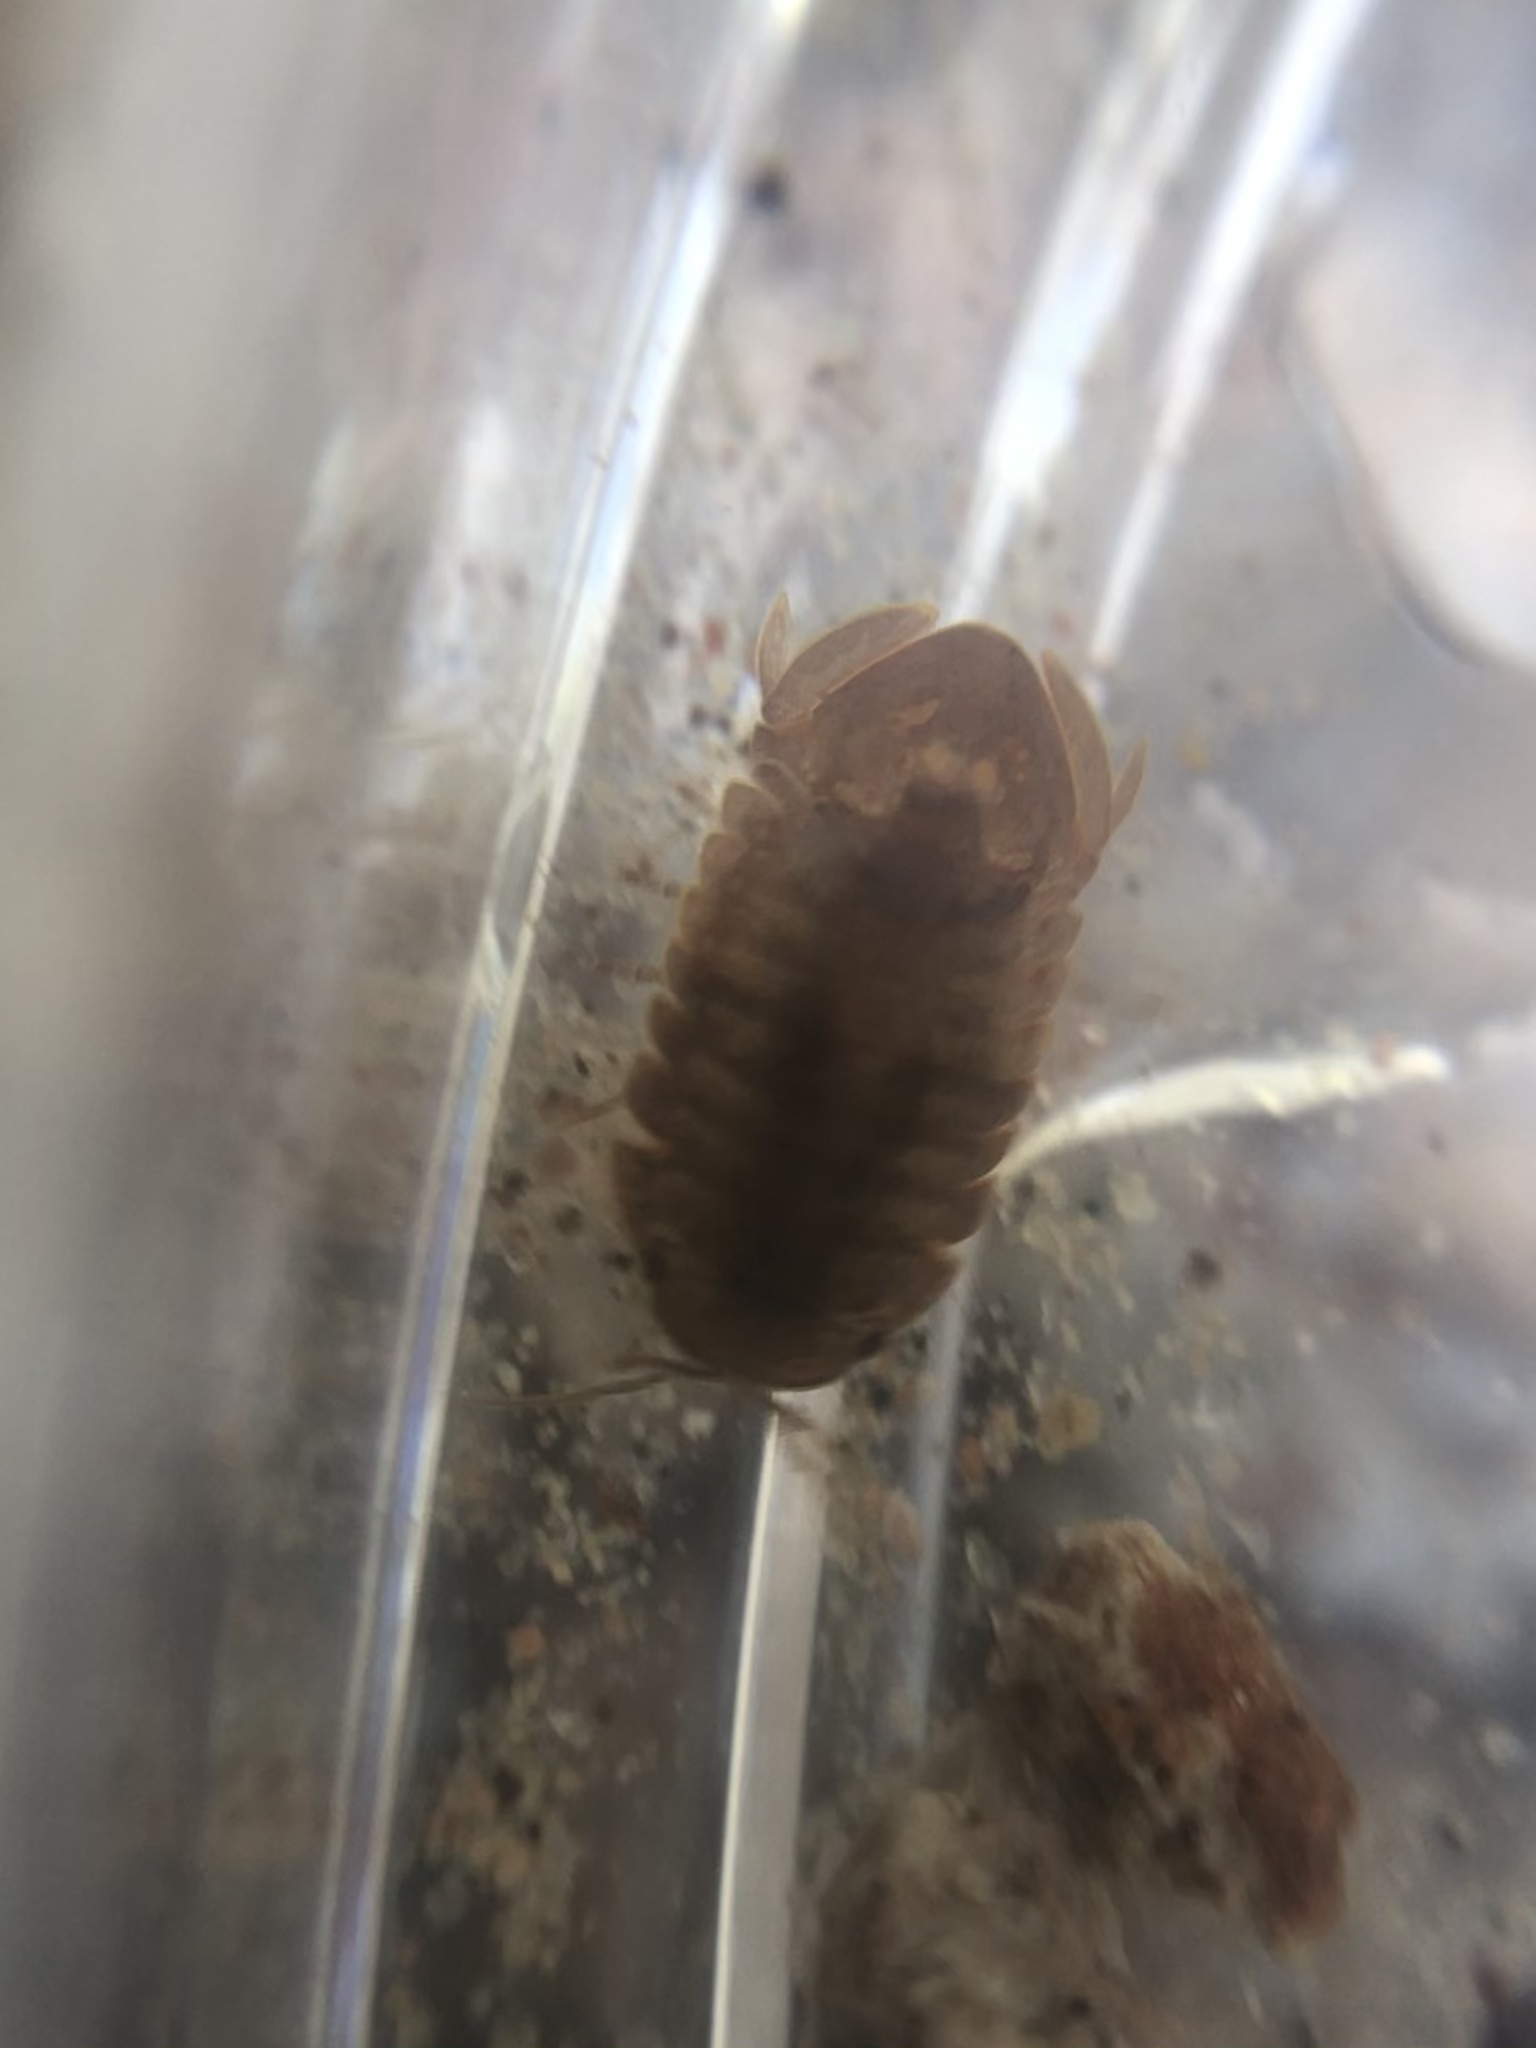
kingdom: Animalia
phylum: Arthropoda
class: Malacostraca
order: Isopoda
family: Sphaeromatidae
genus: Thermosphaeroma
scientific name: Thermosphaeroma thermophilum
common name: Socorro isopod
